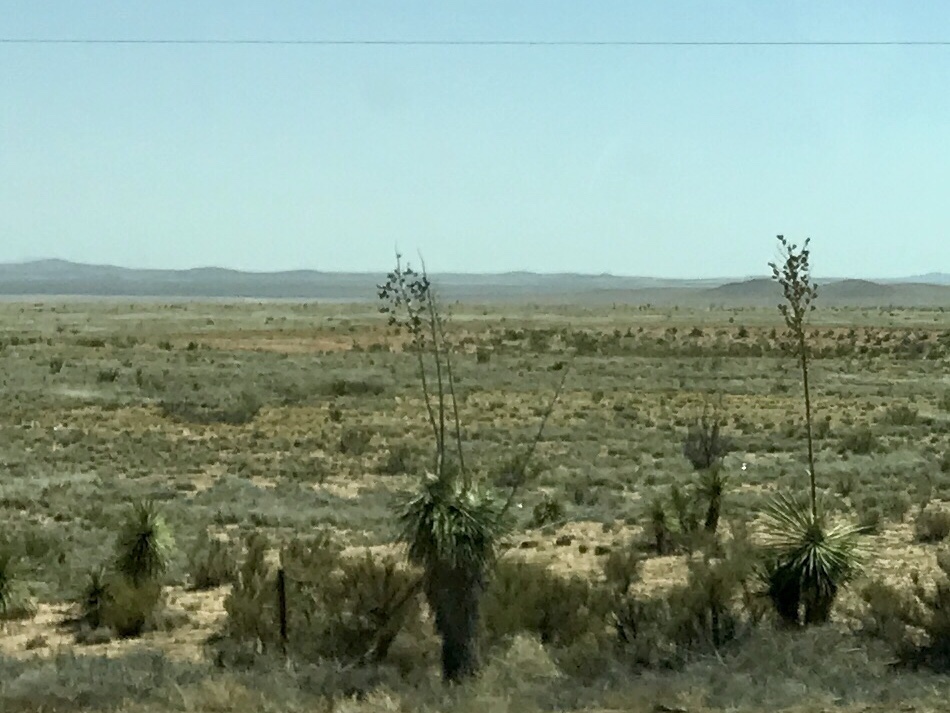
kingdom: Plantae
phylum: Tracheophyta
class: Liliopsida
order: Asparagales
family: Asparagaceae
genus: Yucca
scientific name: Yucca elata
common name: Palmella
